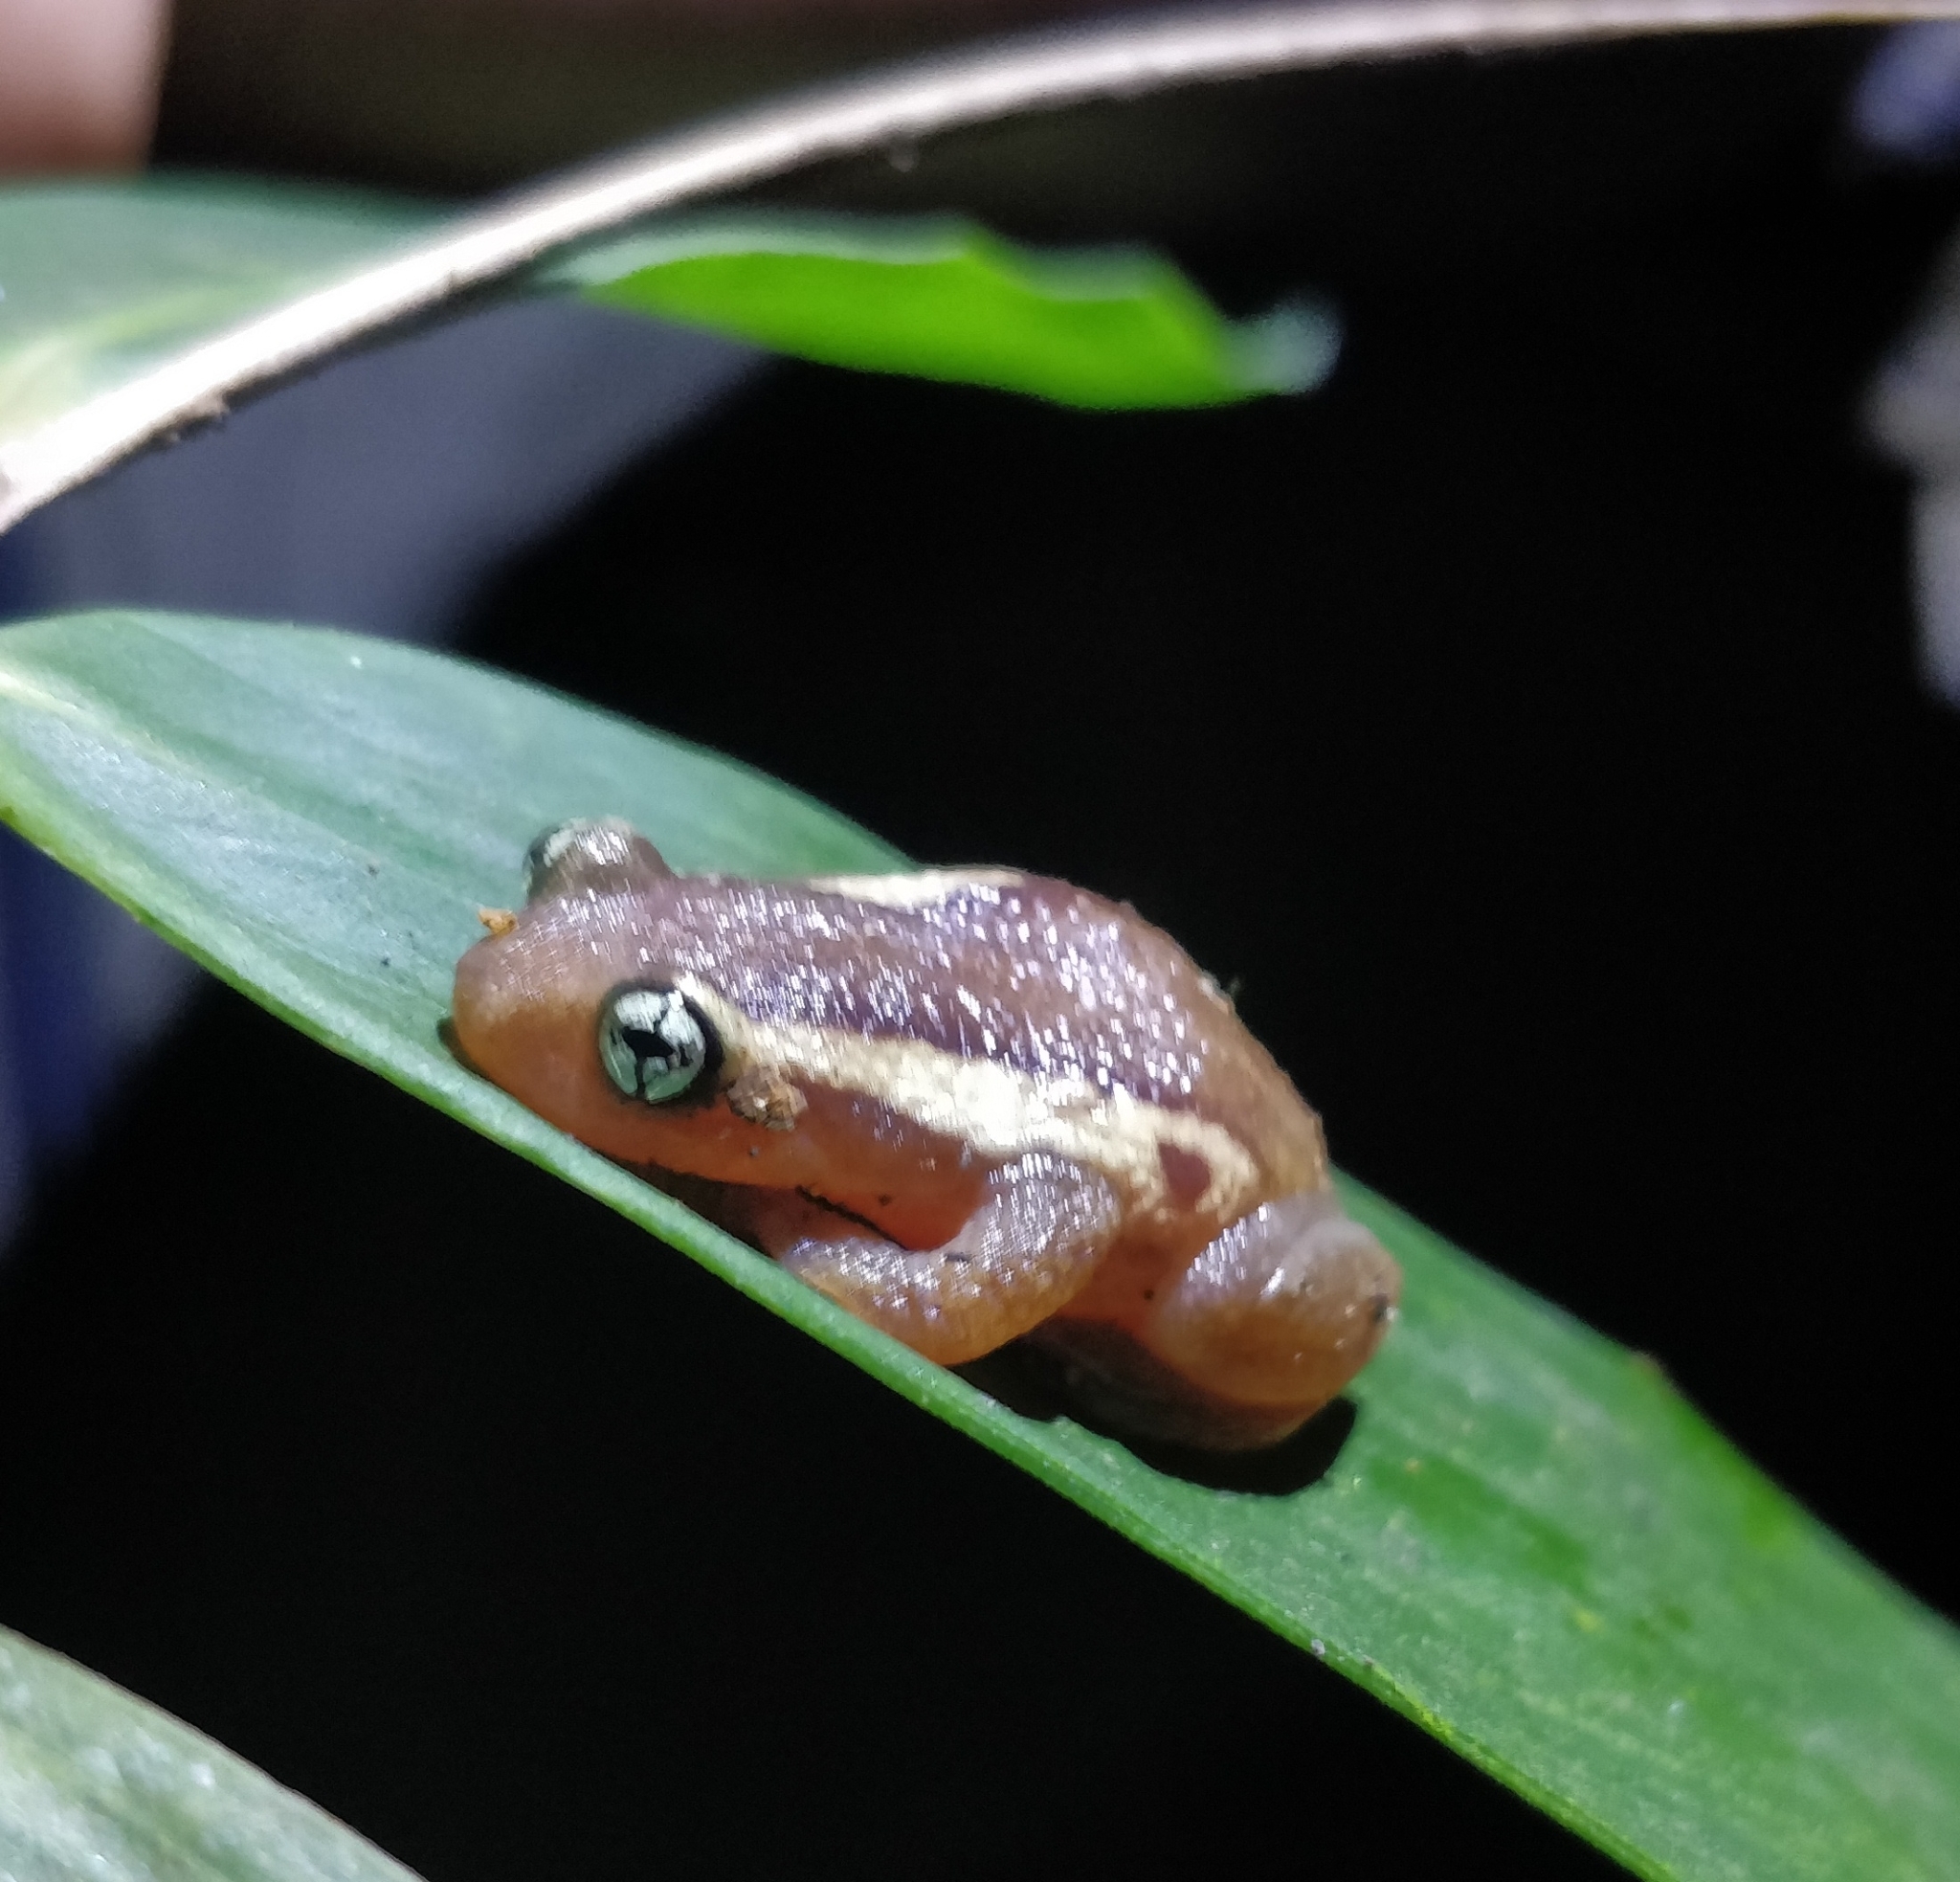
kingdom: Animalia
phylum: Chordata
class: Amphibia
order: Anura
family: Rhacophoridae
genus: Raorchestes
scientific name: Raorchestes ochlandrae
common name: Ochlandrae reed frog
